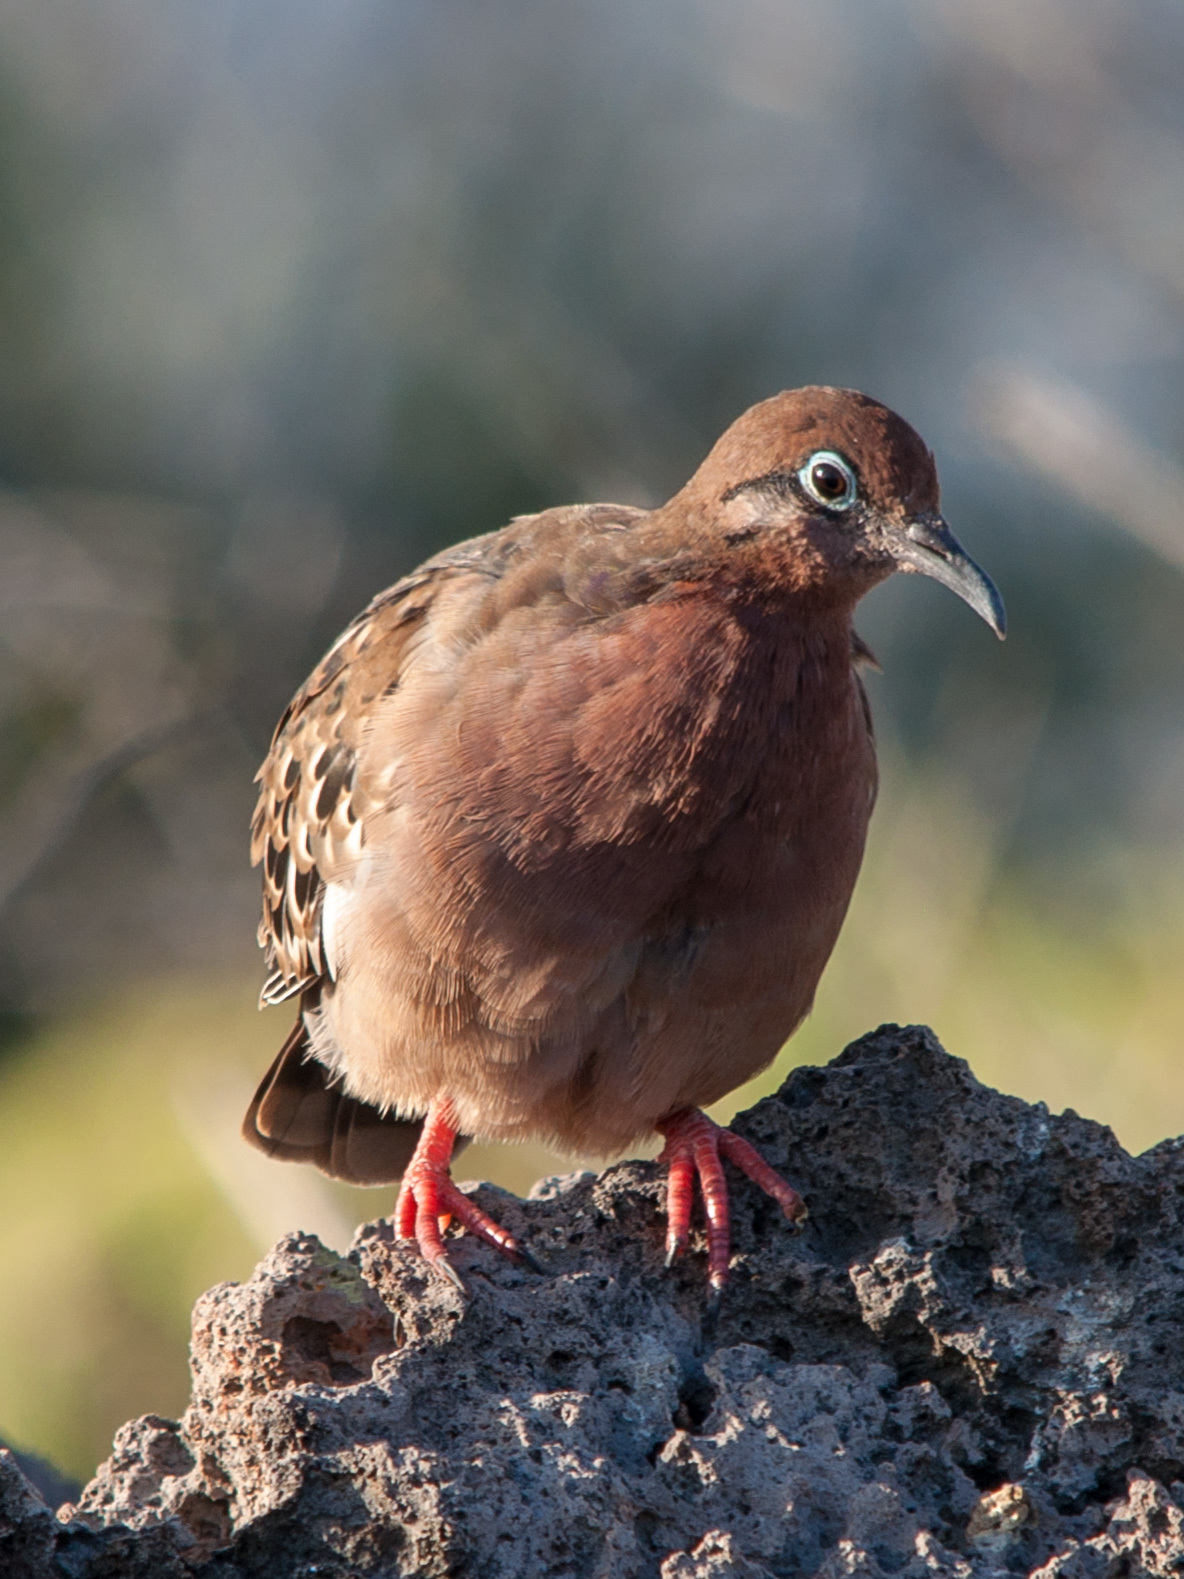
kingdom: Animalia
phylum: Chordata
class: Aves
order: Columbiformes
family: Columbidae
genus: Zenaida
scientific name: Zenaida galapagoensis
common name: Galapagos dove
